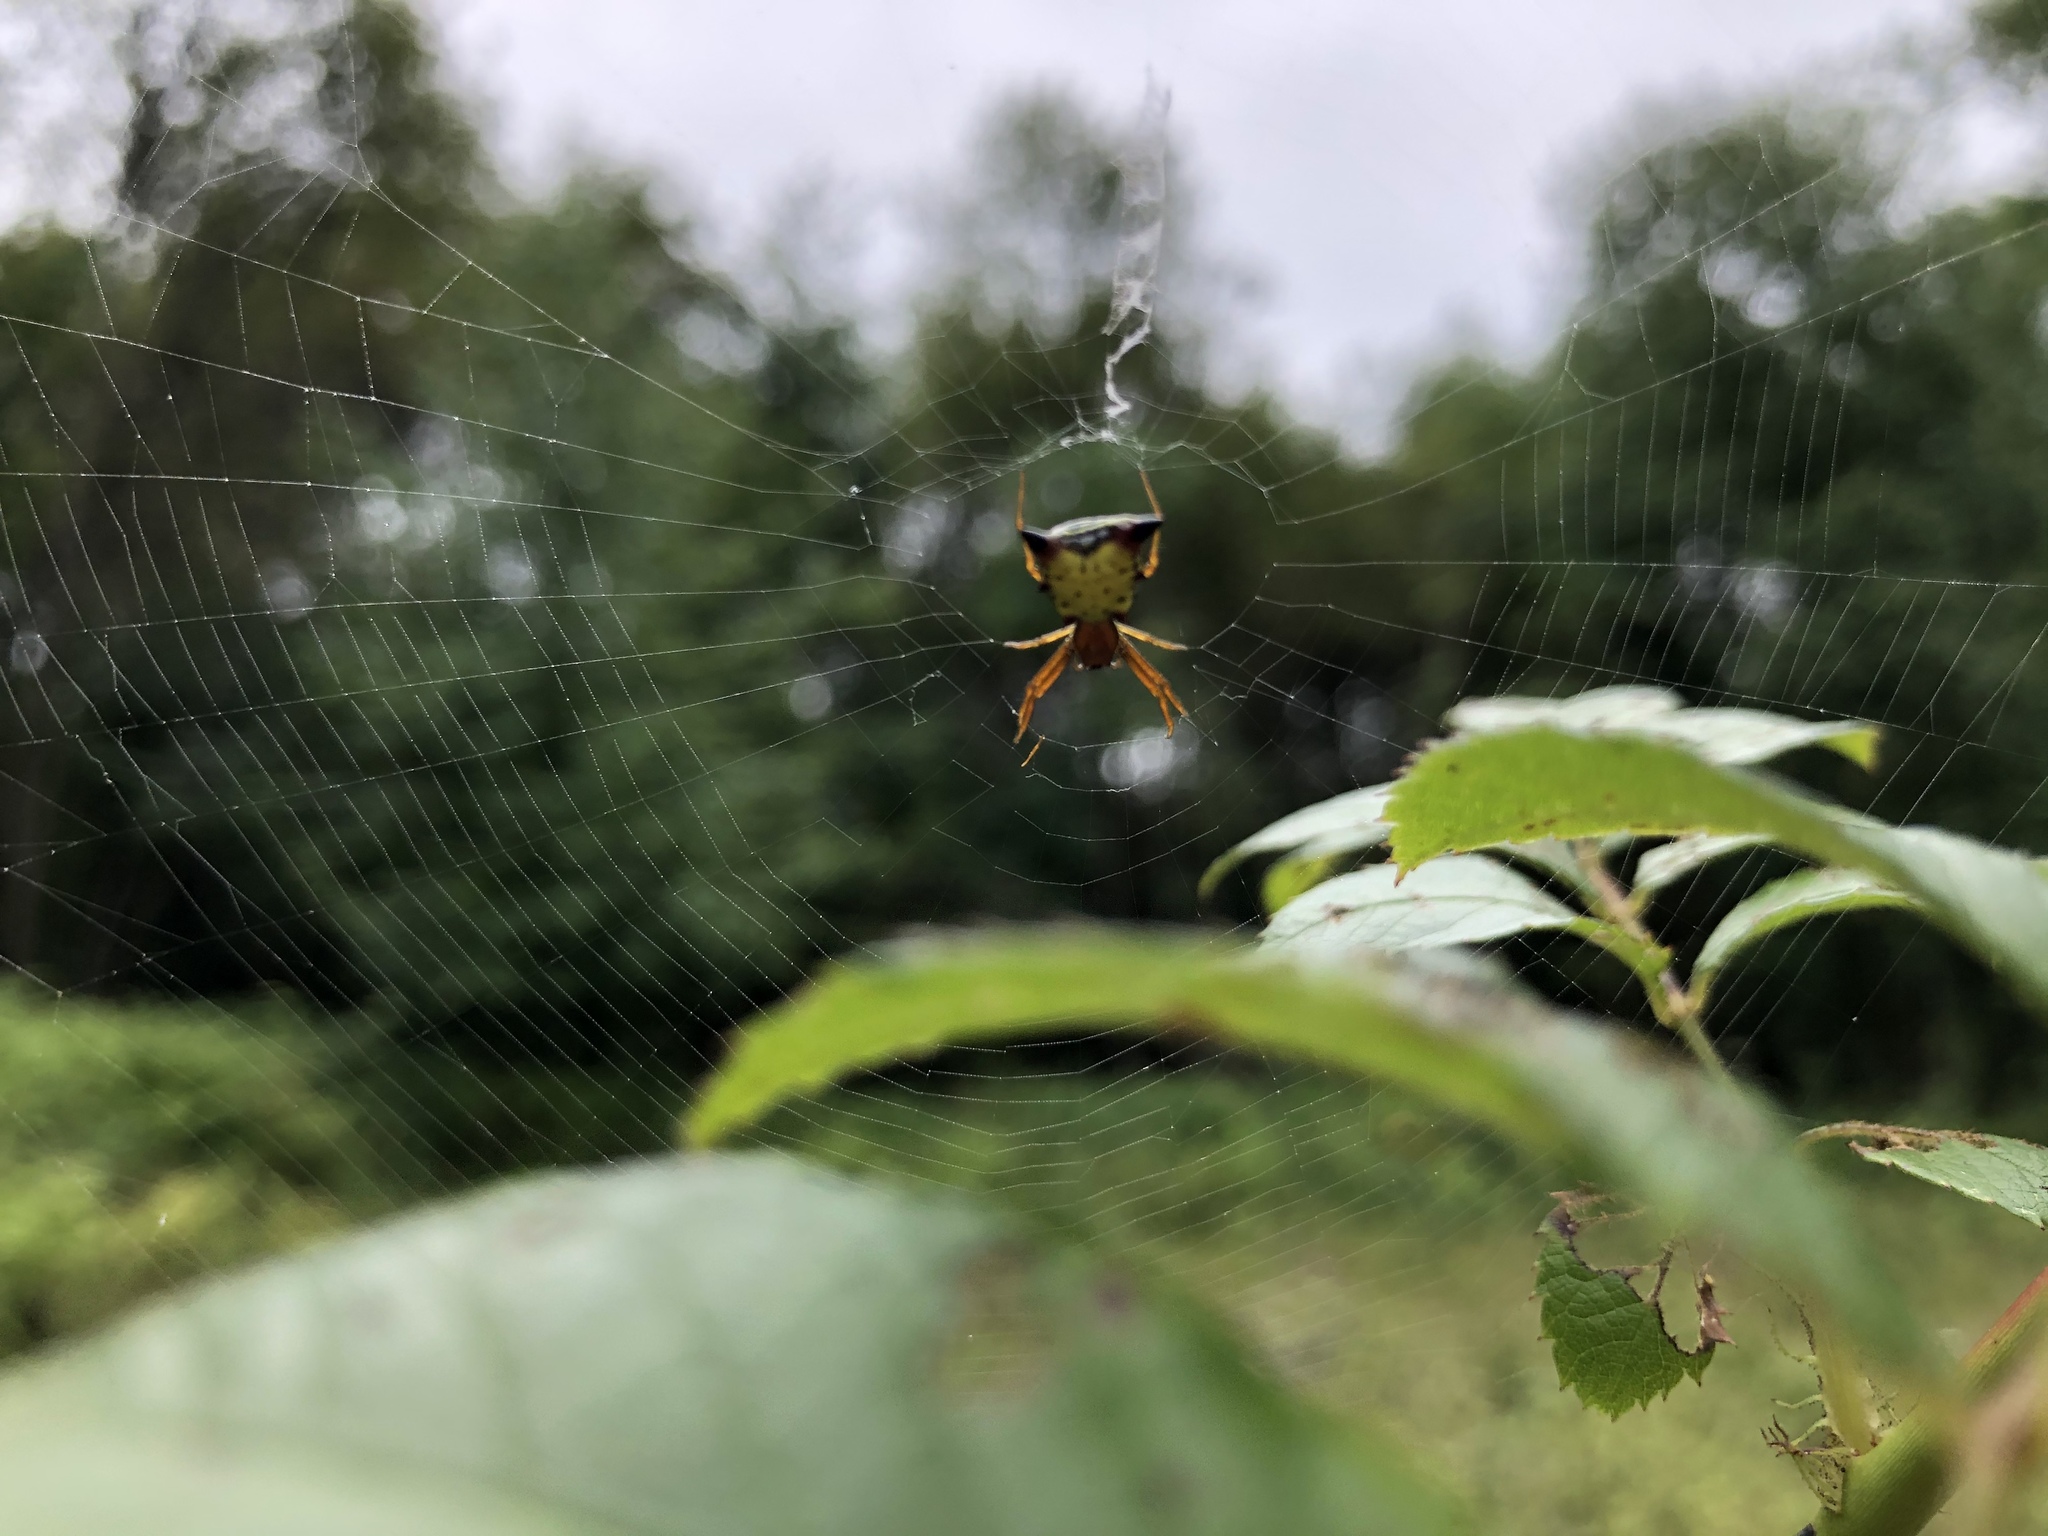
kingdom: Animalia
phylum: Arthropoda
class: Arachnida
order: Araneae
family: Araneidae
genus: Micrathena
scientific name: Micrathena sagittata
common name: Orb weavers
